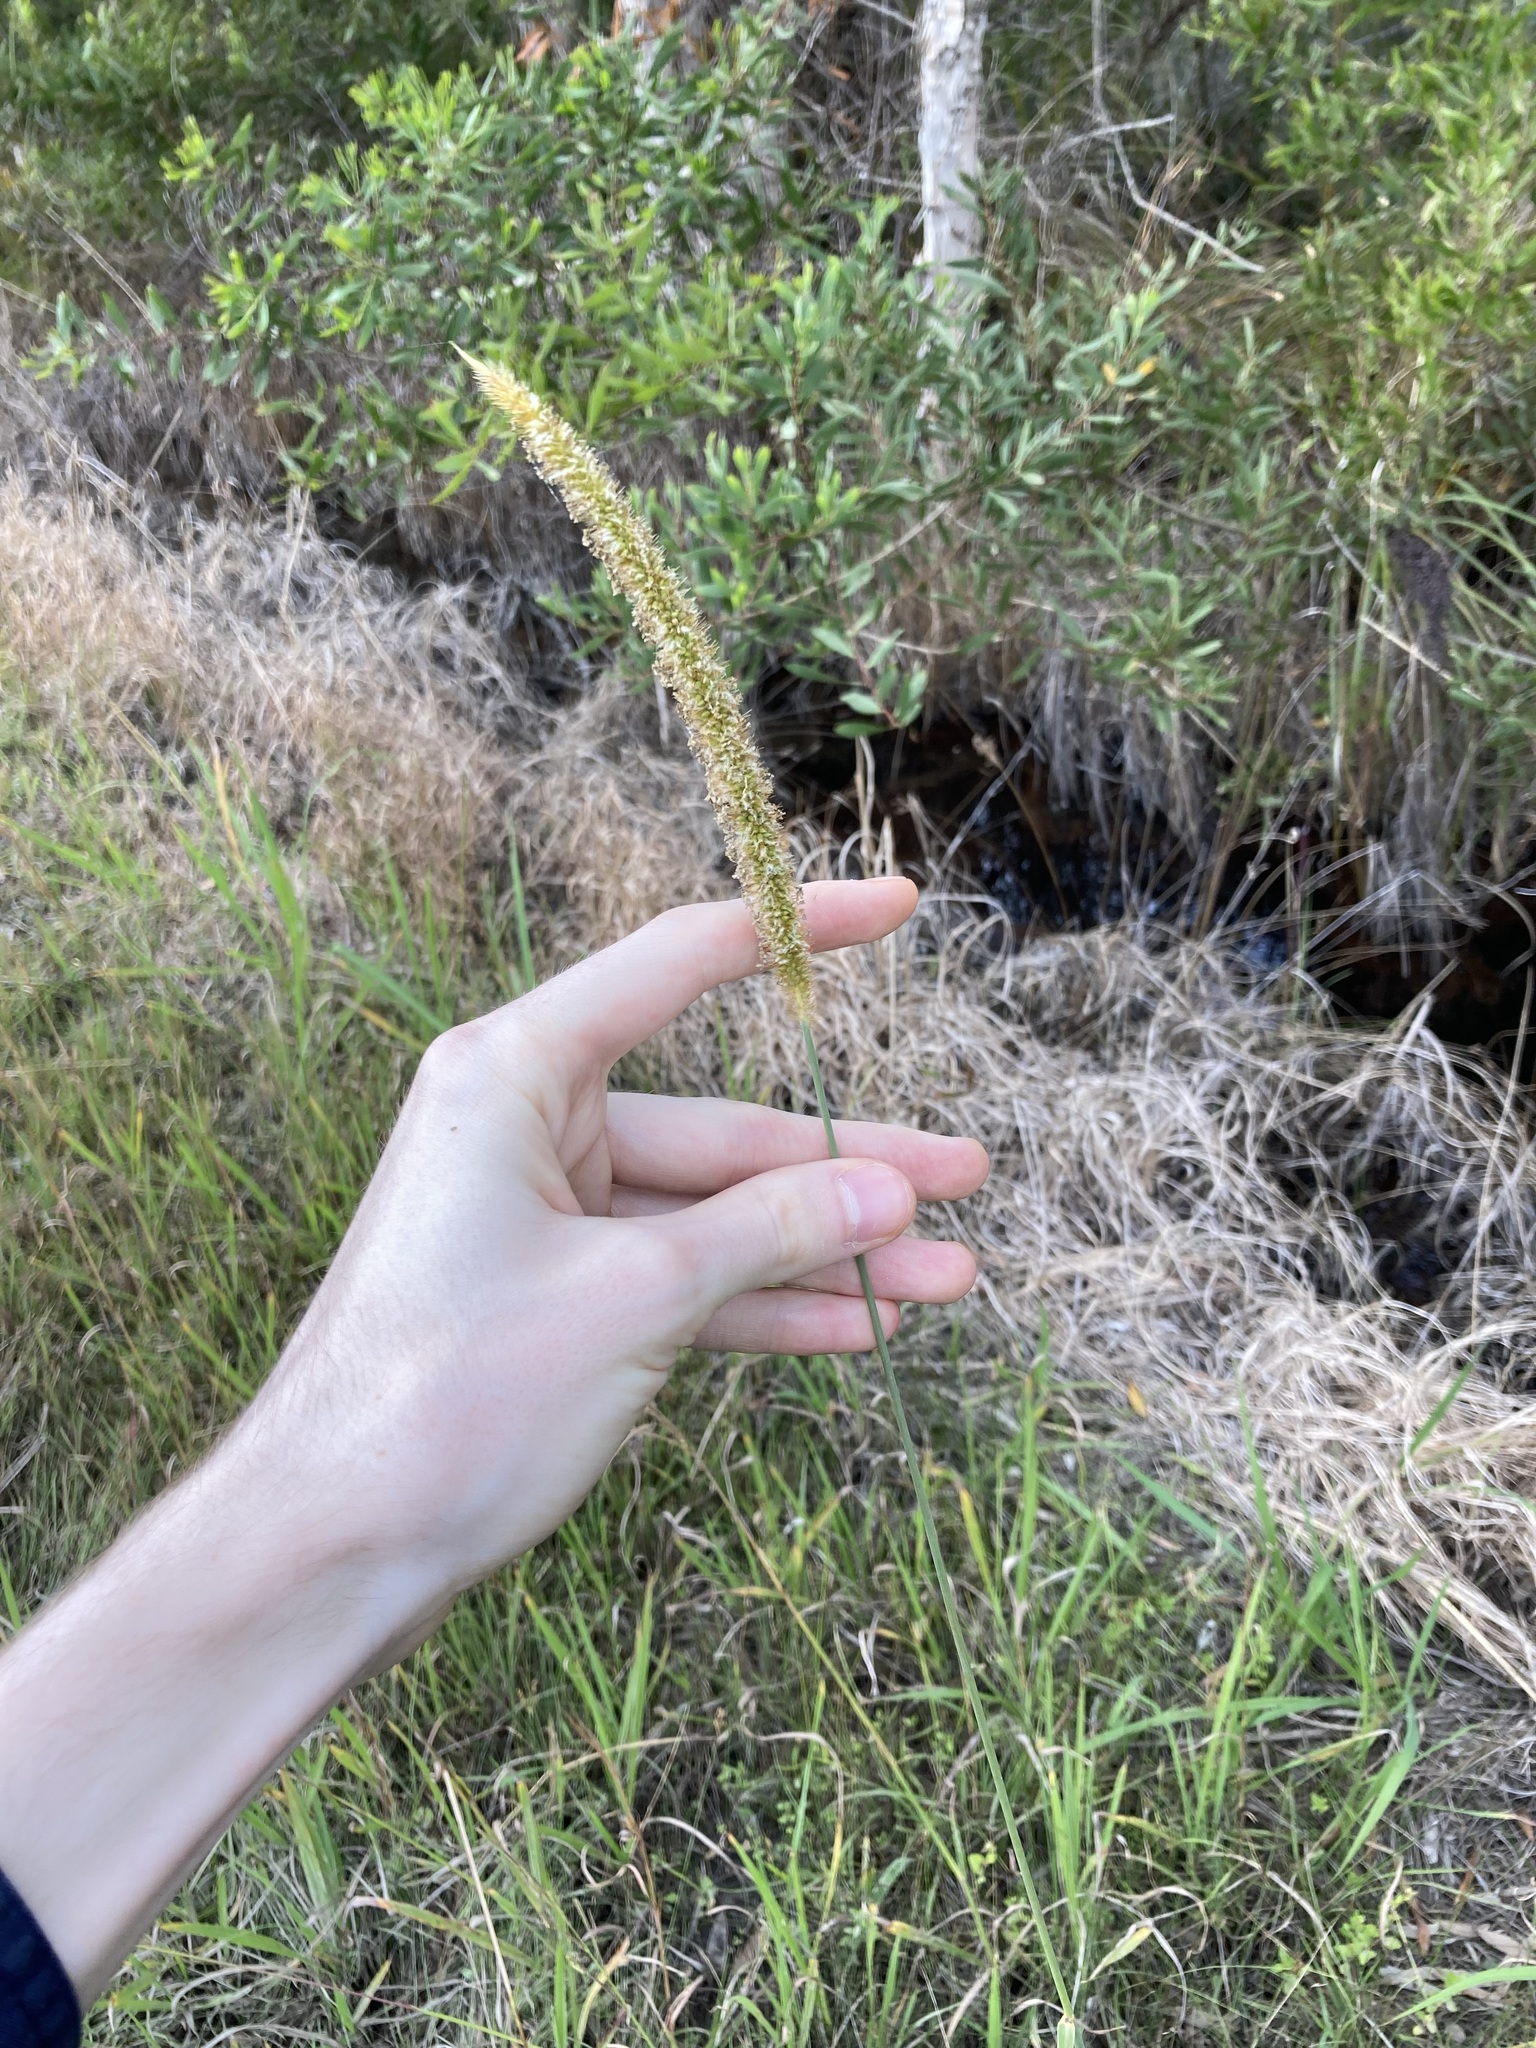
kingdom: Plantae
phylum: Tracheophyta
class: Liliopsida
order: Poales
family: Poaceae
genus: Setaria
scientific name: Setaria sphacelata
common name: African bristlegrass
